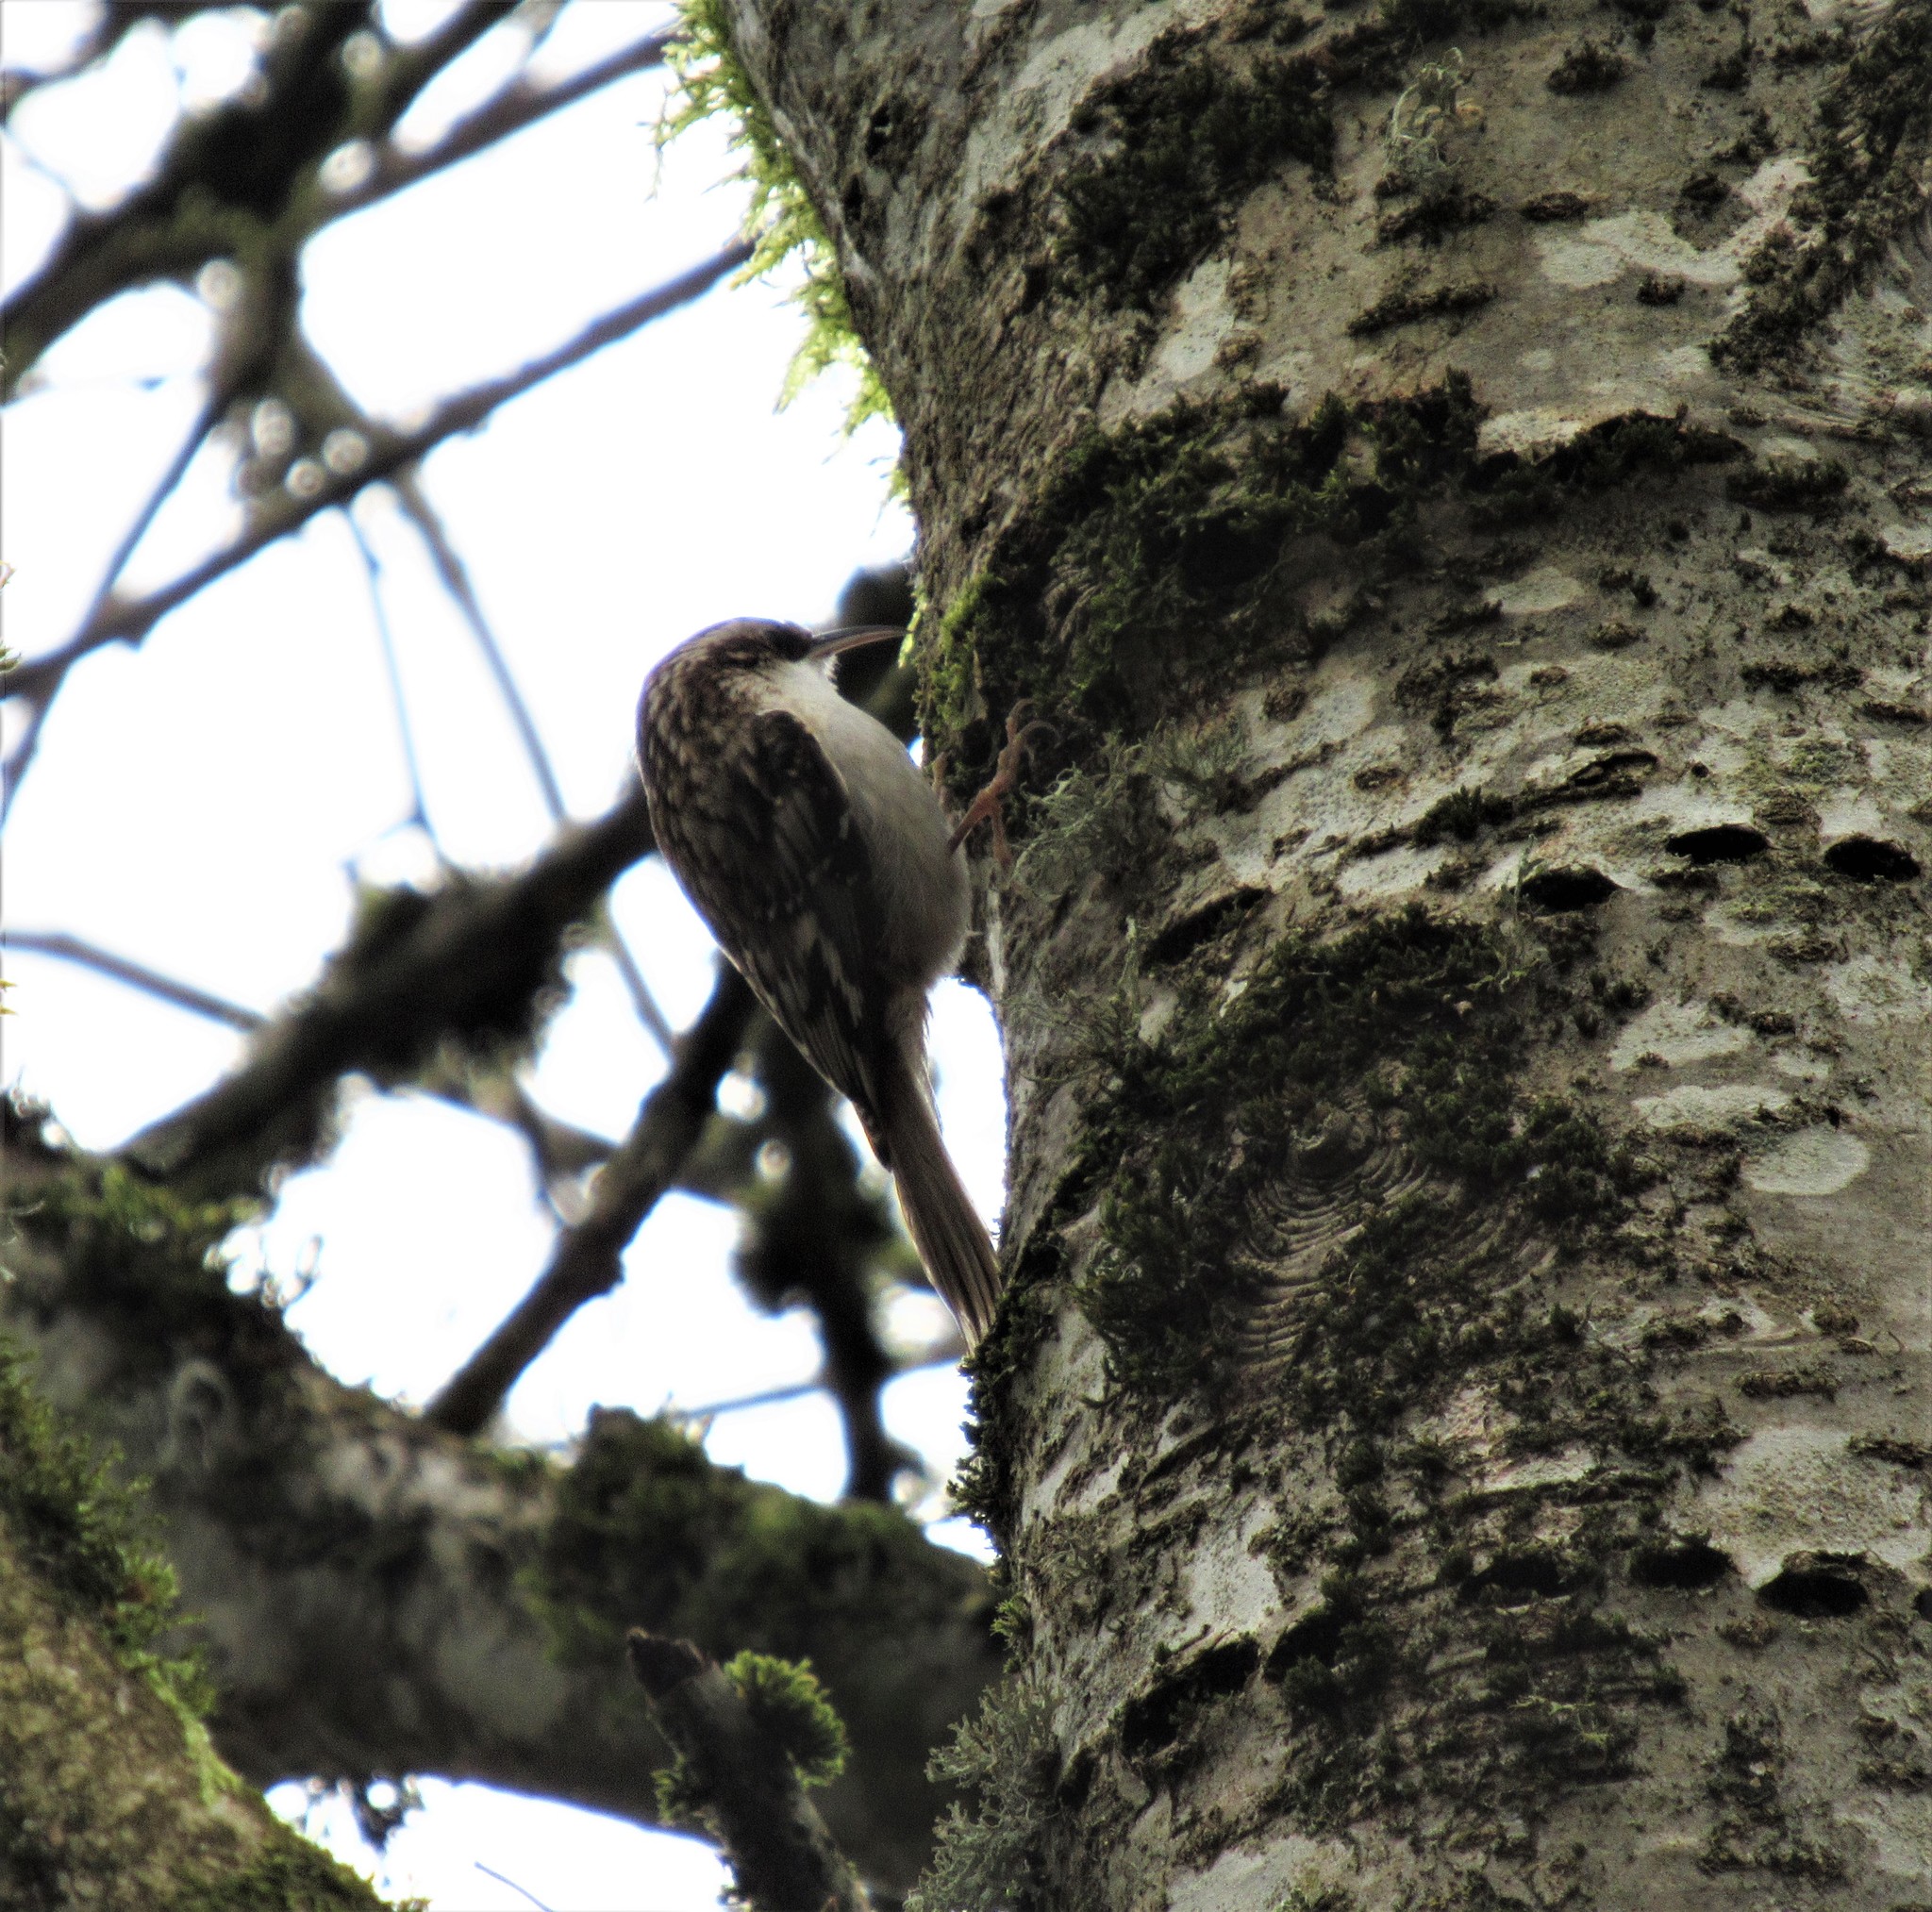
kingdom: Animalia
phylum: Chordata
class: Aves
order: Passeriformes
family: Certhiidae
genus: Certhia
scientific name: Certhia americana
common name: Brown creeper
